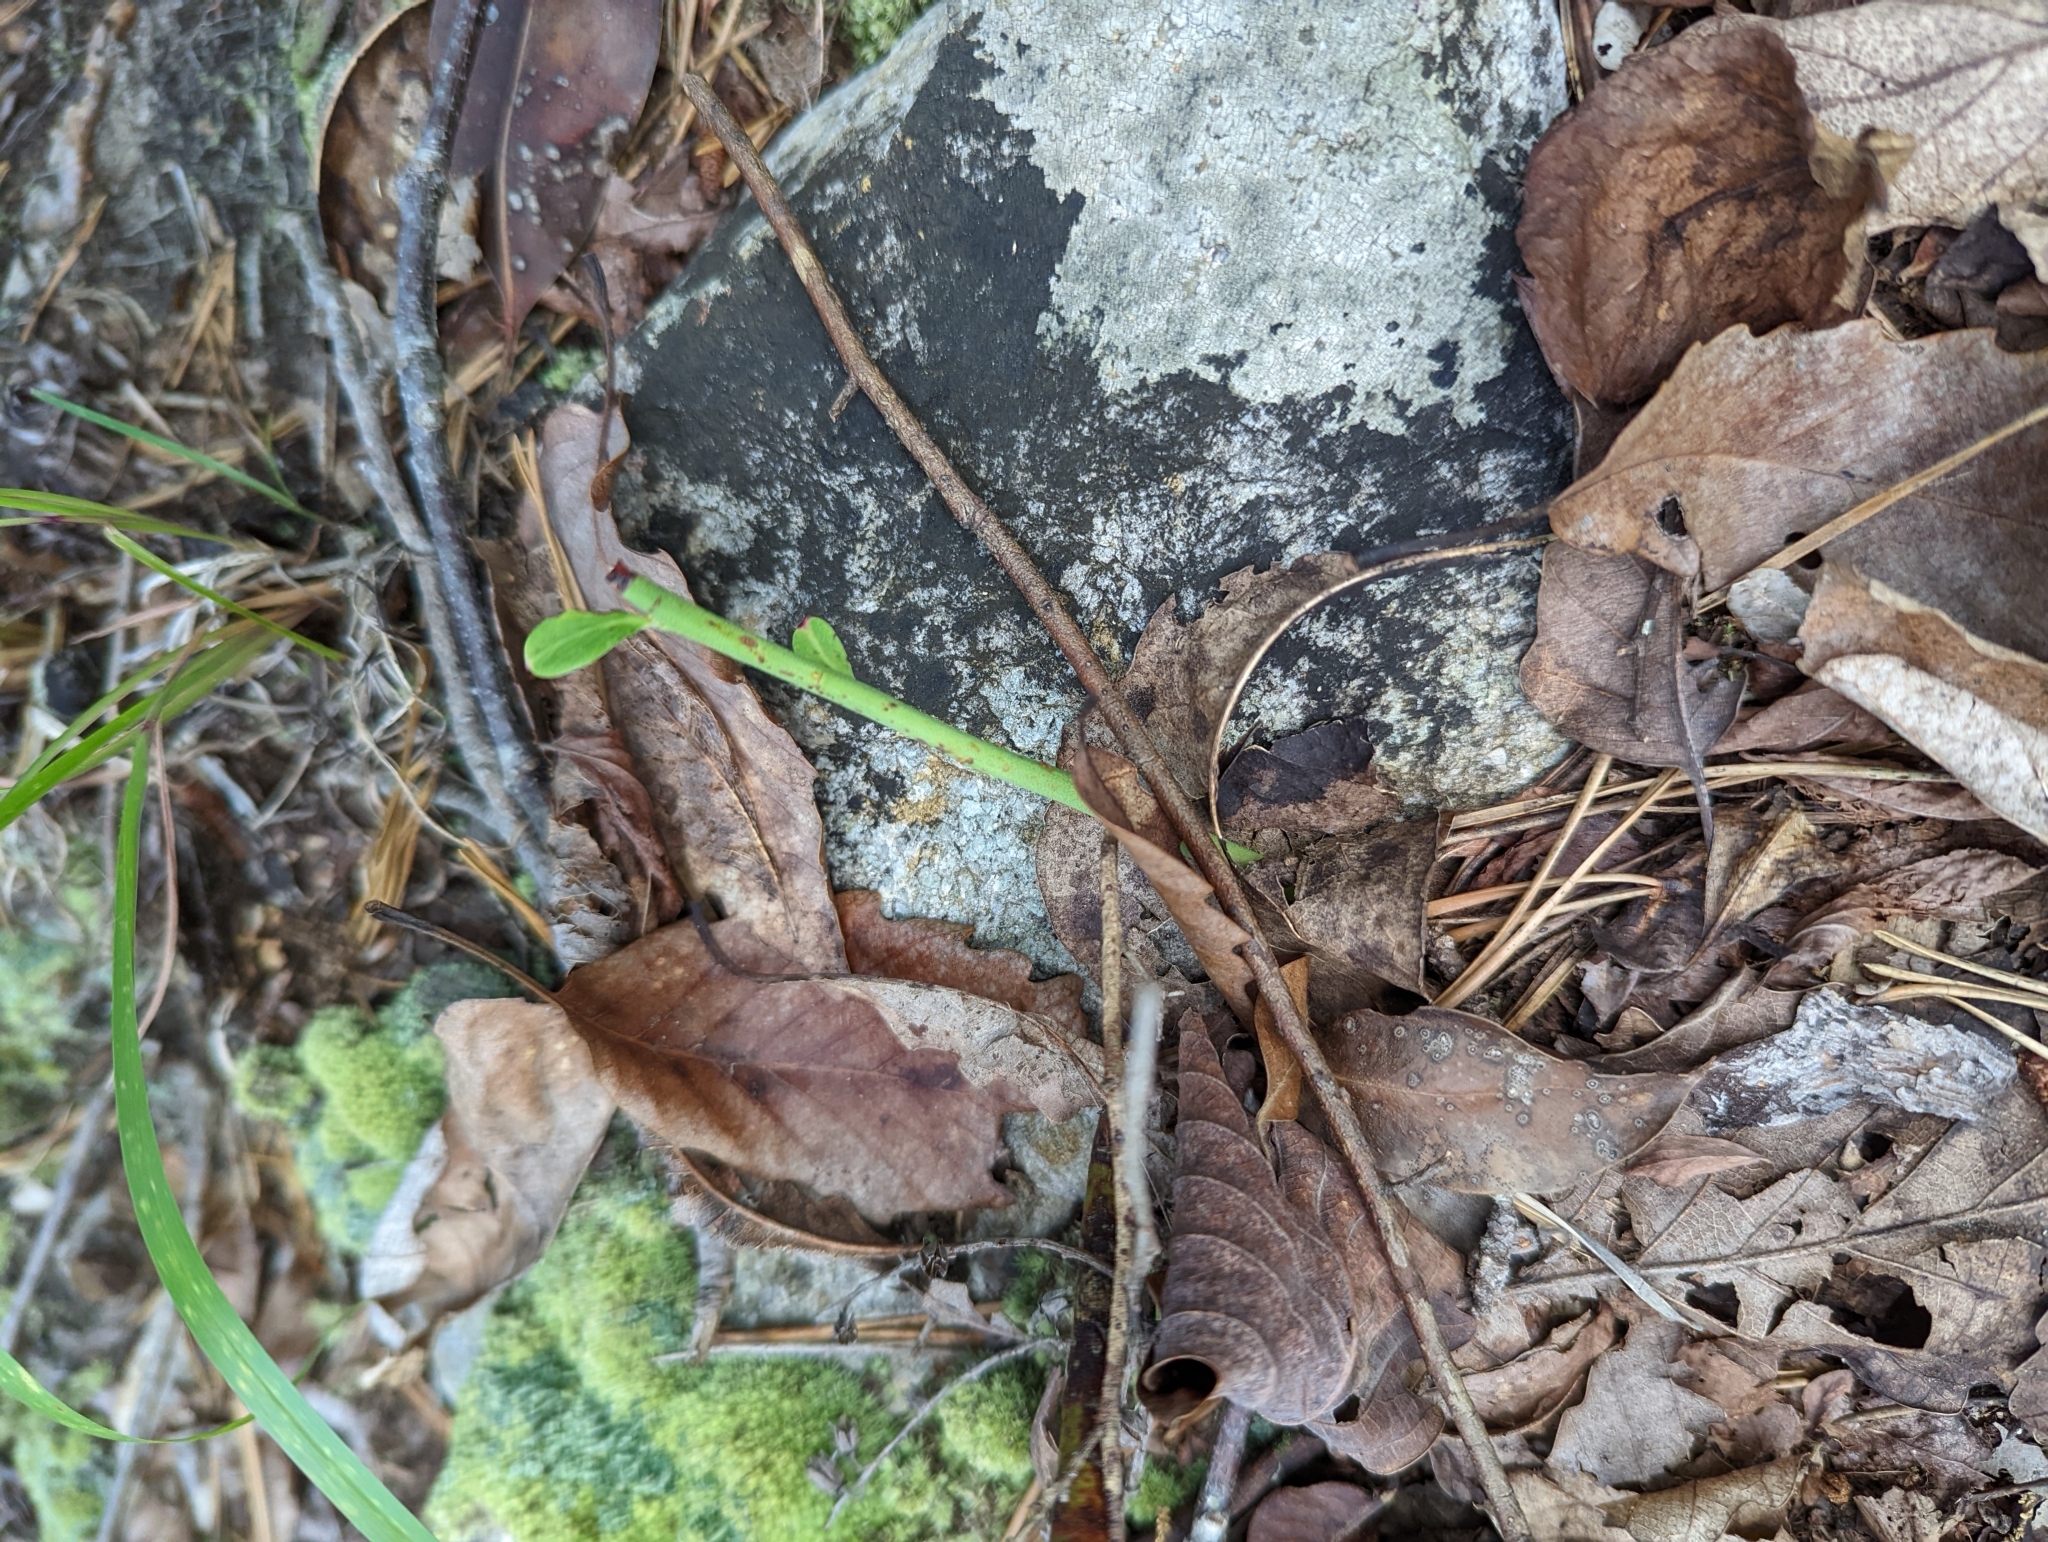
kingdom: Plantae
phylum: Tracheophyta
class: Magnoliopsida
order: Ericales
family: Ericaceae
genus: Vaccinium
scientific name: Vaccinium stamineum
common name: Deerberry
